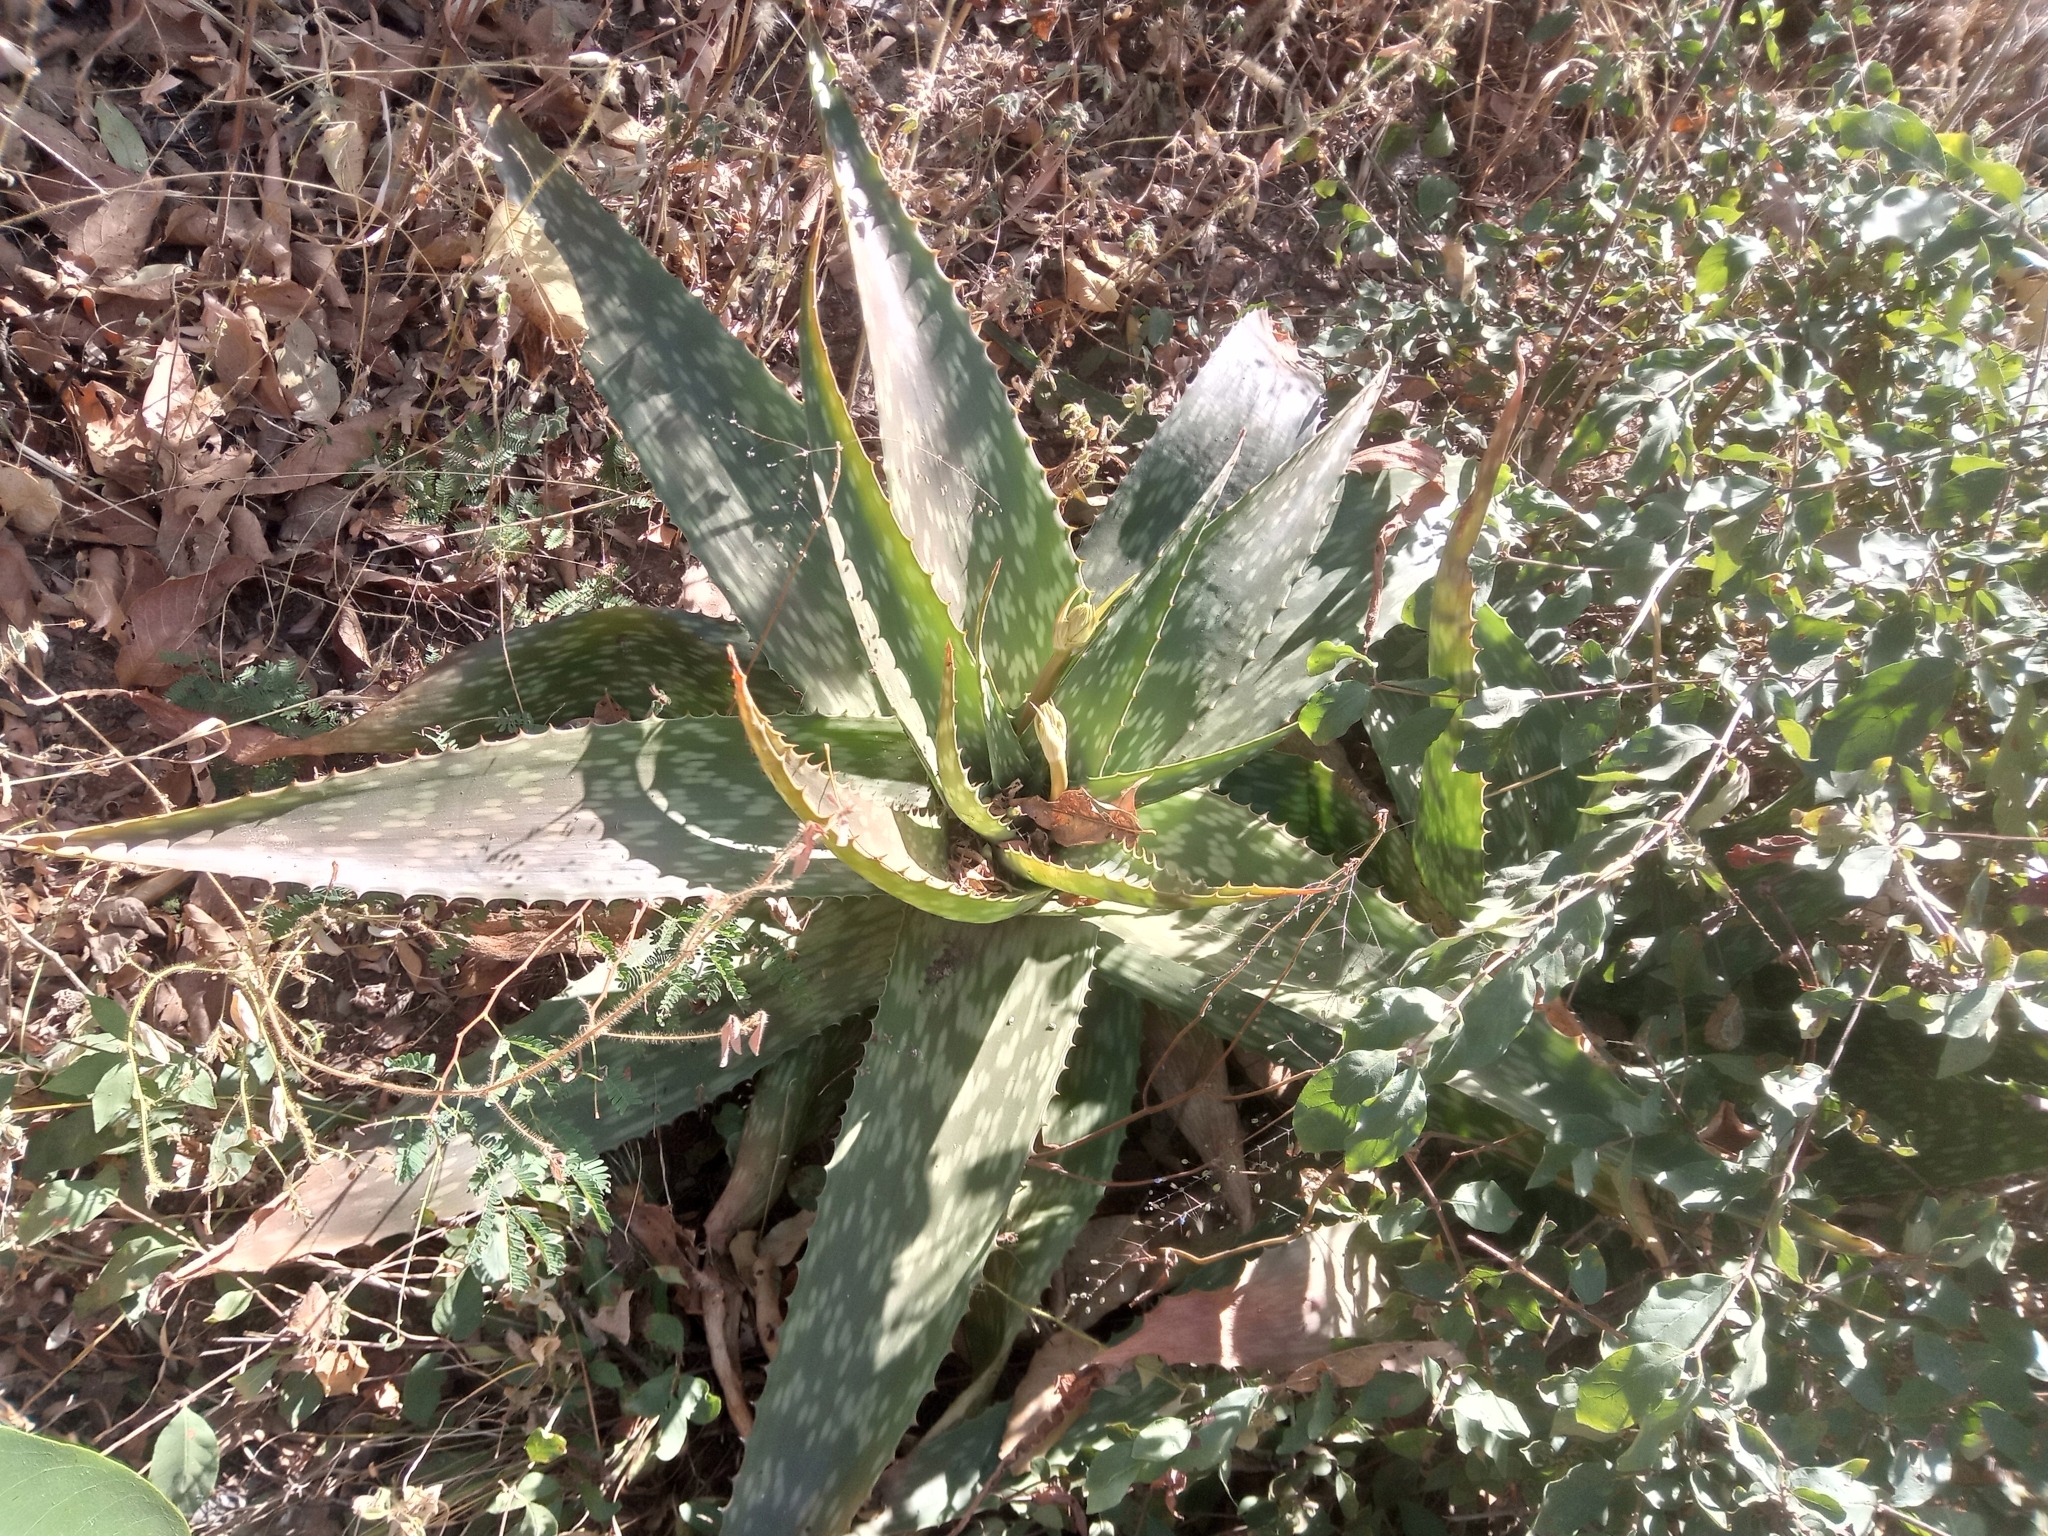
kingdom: Plantae
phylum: Tracheophyta
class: Liliopsida
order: Asparagales
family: Asphodelaceae
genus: Aloe
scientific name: Aloe schweinfurthii
